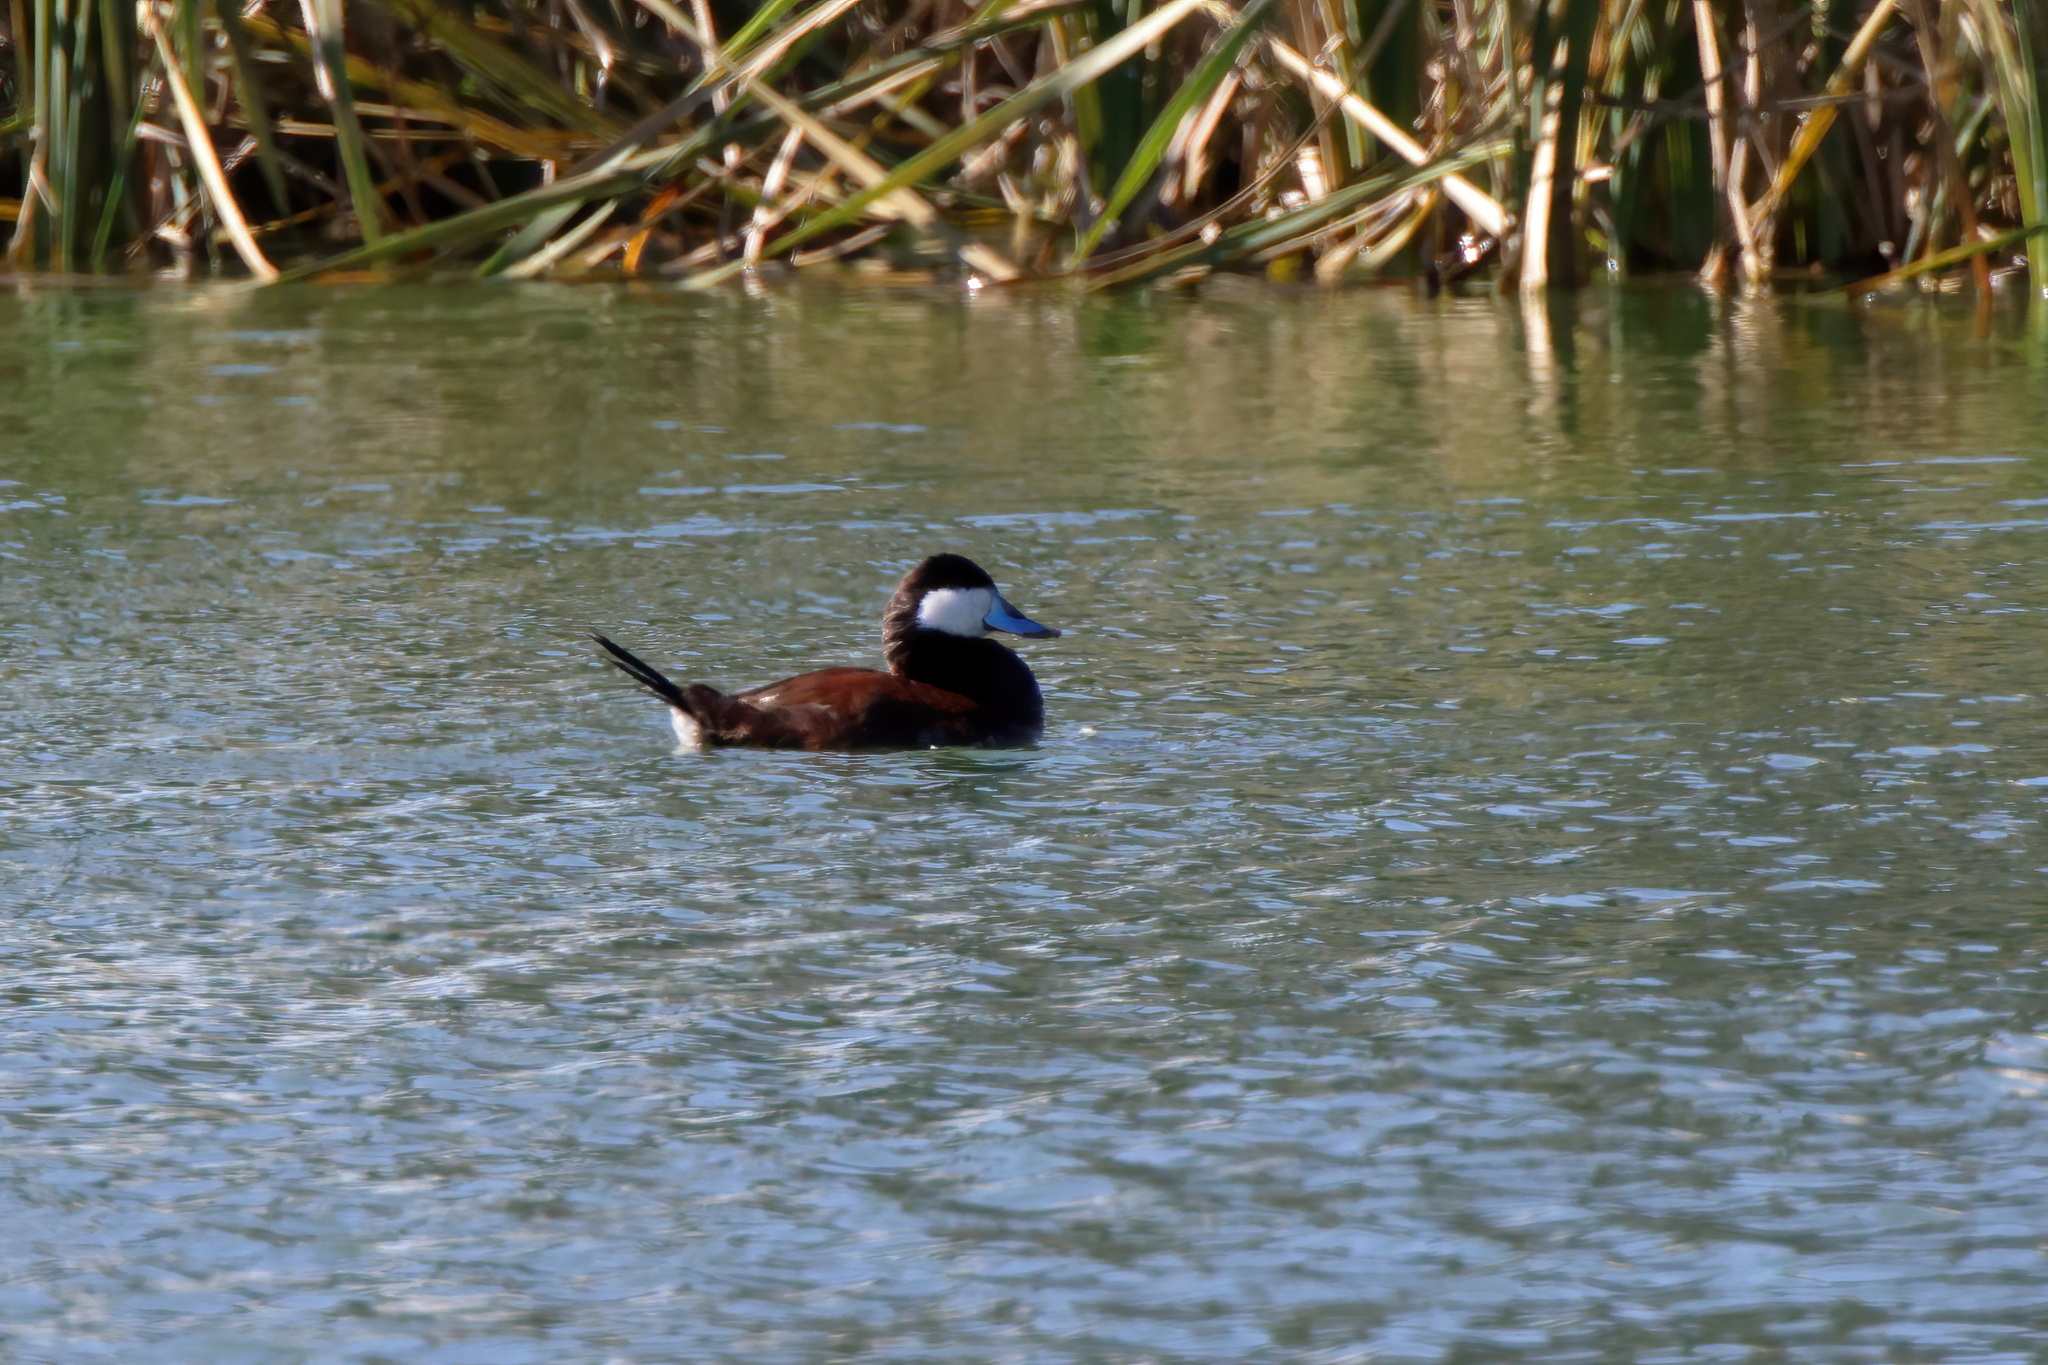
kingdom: Animalia
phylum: Chordata
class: Aves
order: Anseriformes
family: Anatidae
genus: Oxyura
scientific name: Oxyura jamaicensis
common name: Ruddy duck
